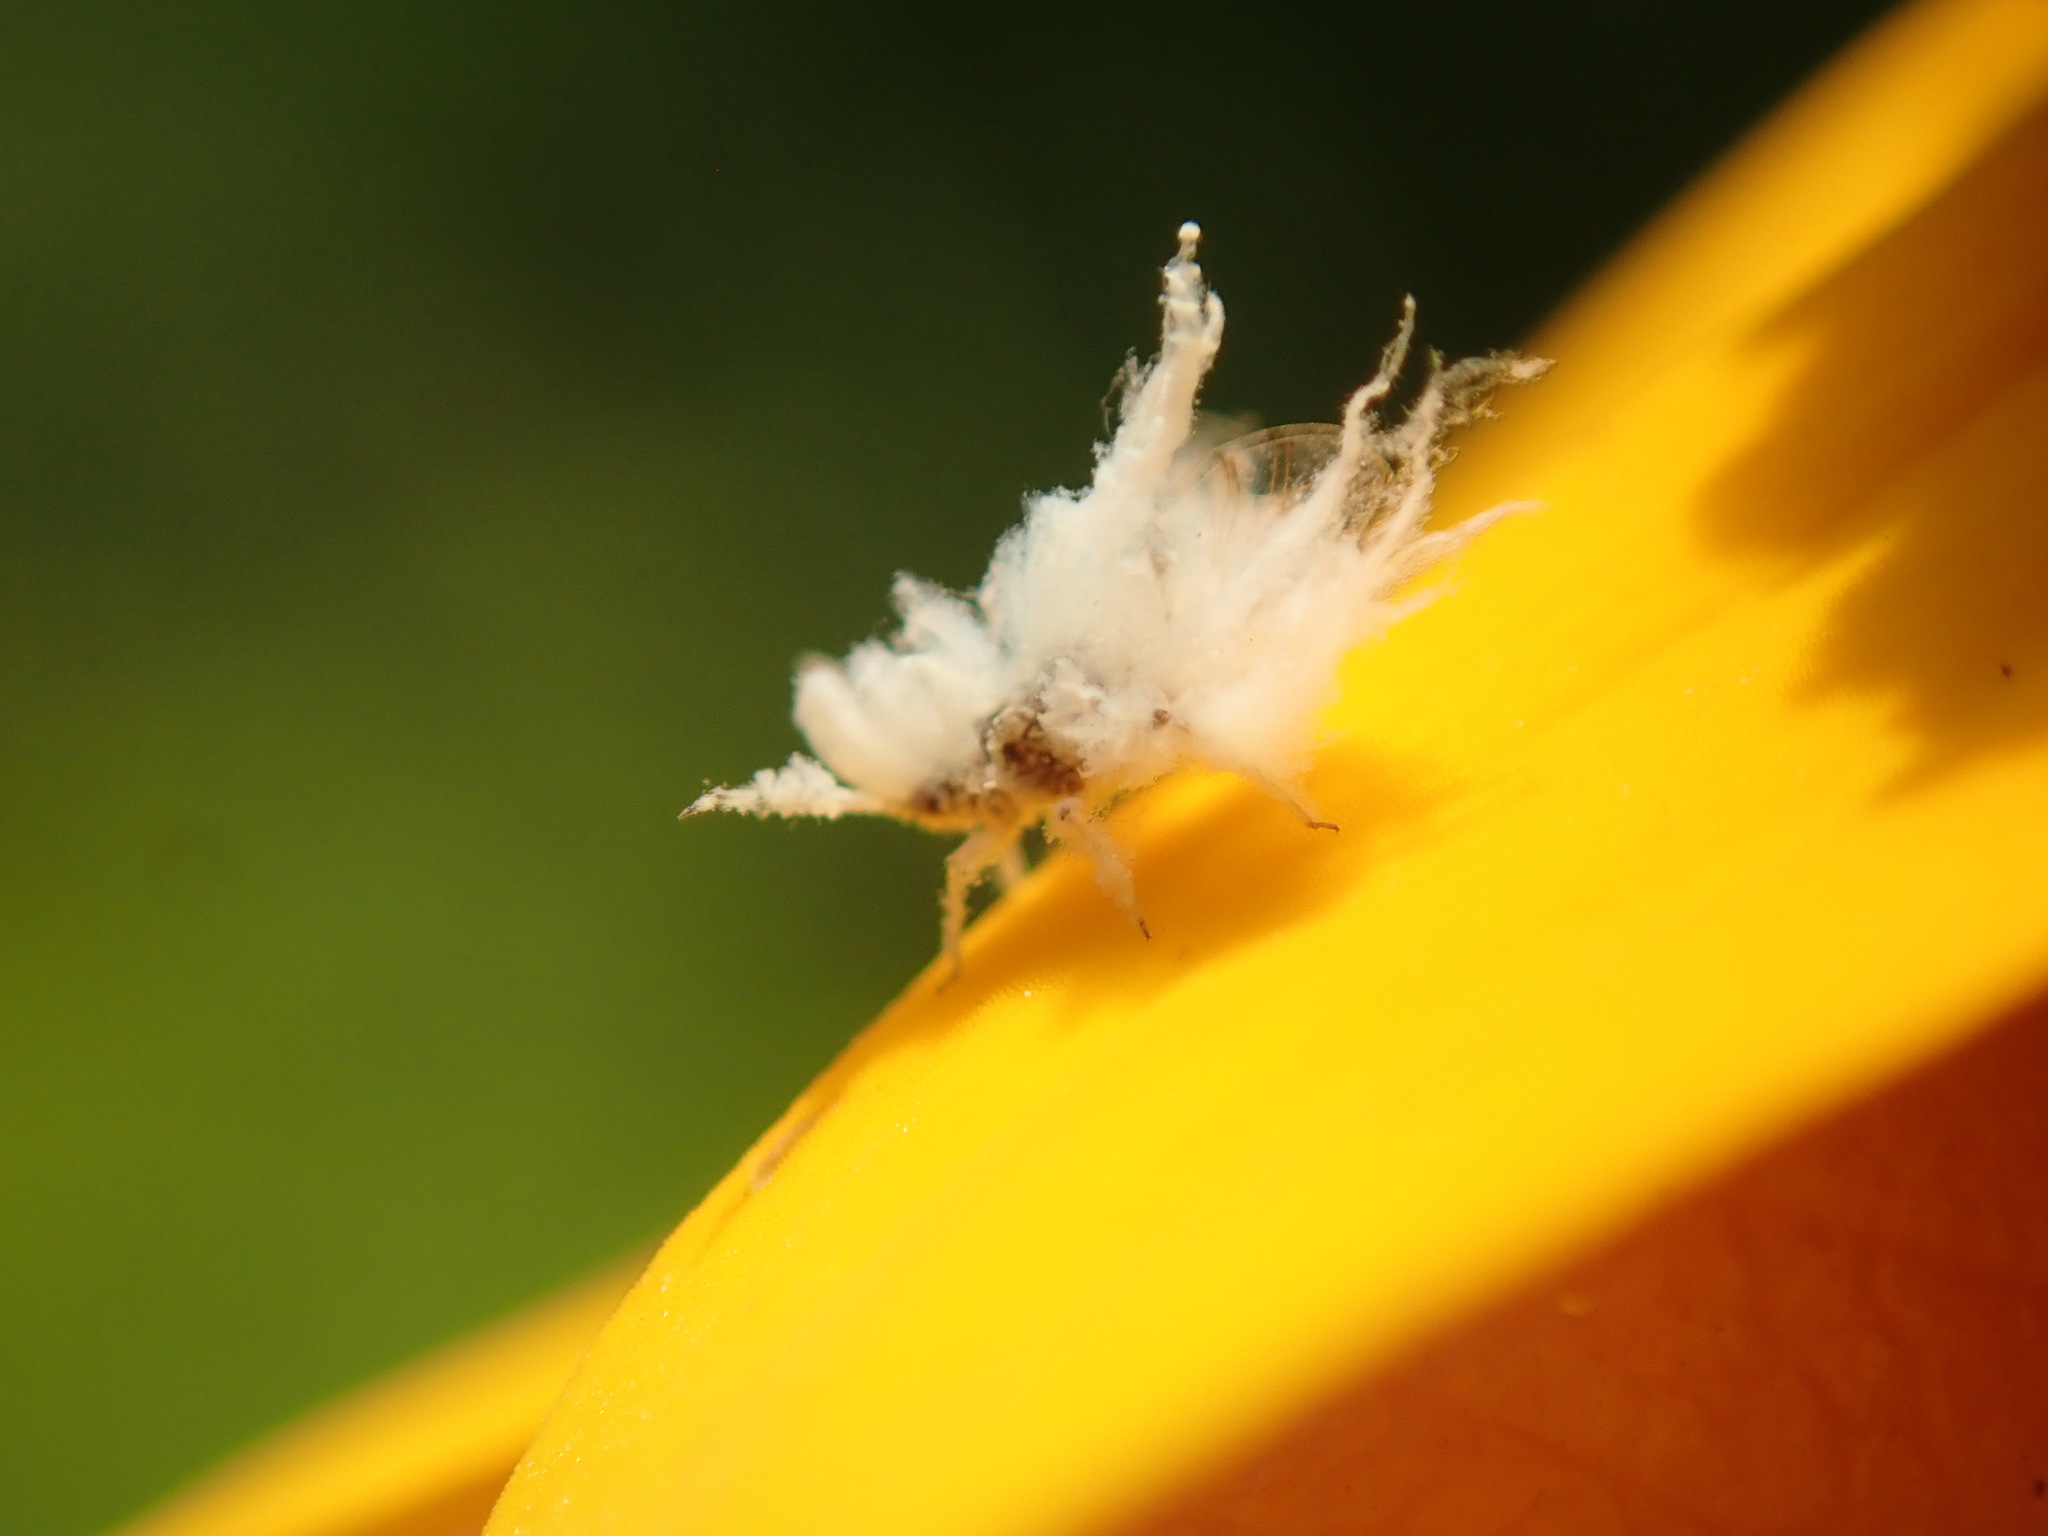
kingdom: Animalia
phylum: Arthropoda
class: Insecta
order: Hemiptera
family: Aphididae
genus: Shivaphis
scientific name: Shivaphis celti
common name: Asian wooly hackberry aphid
